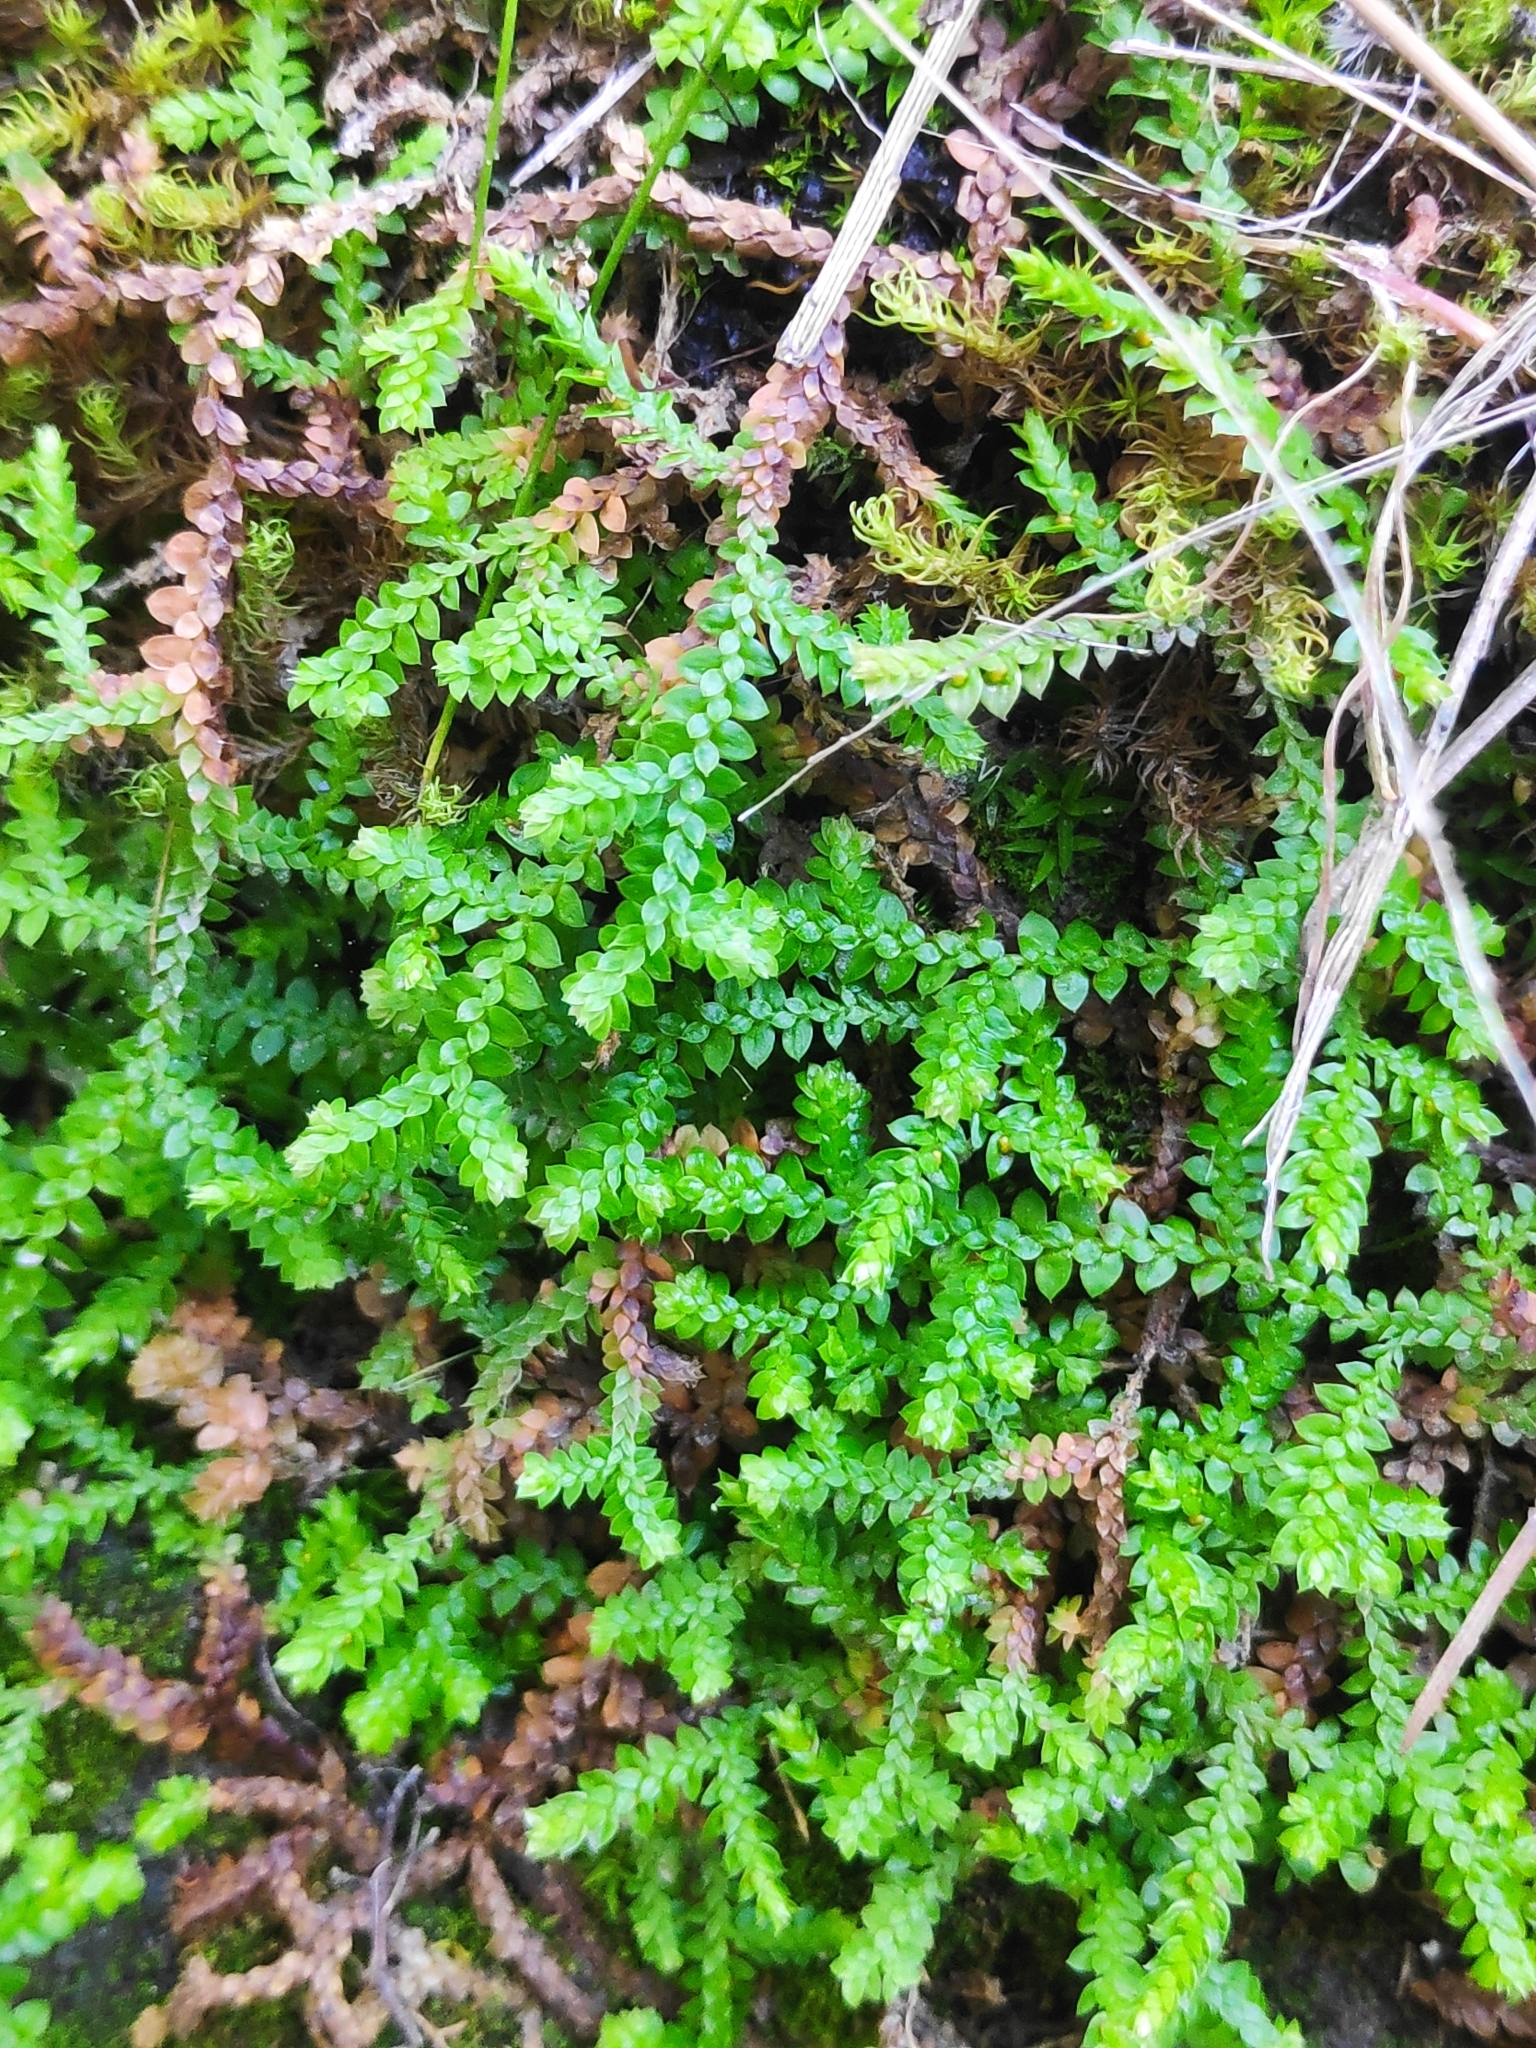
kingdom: Plantae
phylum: Tracheophyta
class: Lycopodiopsida
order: Selaginellales
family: Selaginellaceae
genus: Selaginella
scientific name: Selaginella denticulata
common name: Toothed-leaved clubmoss
